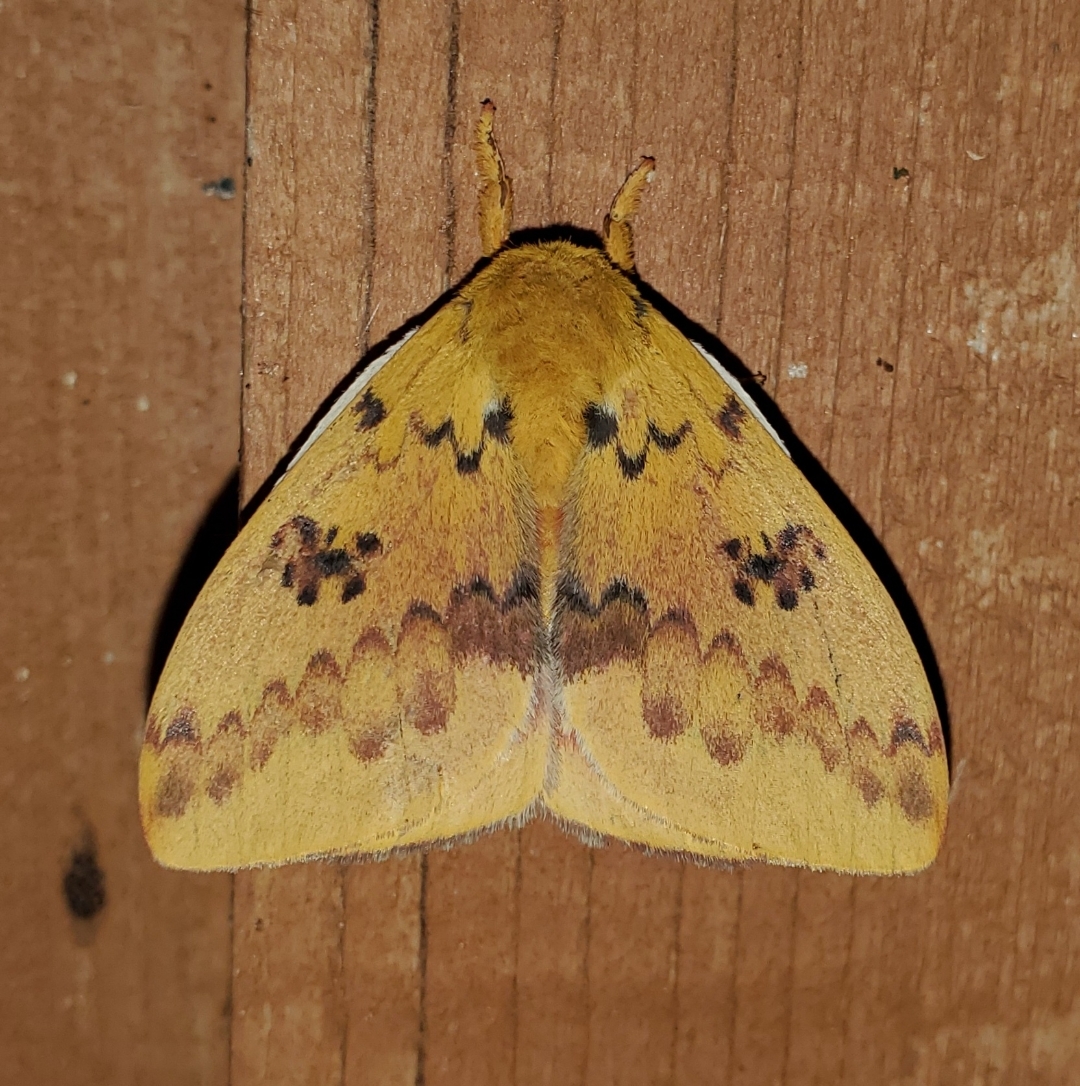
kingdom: Animalia
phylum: Arthropoda
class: Insecta
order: Lepidoptera
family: Saturniidae
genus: Automeris
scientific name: Automeris io
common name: Io moth
